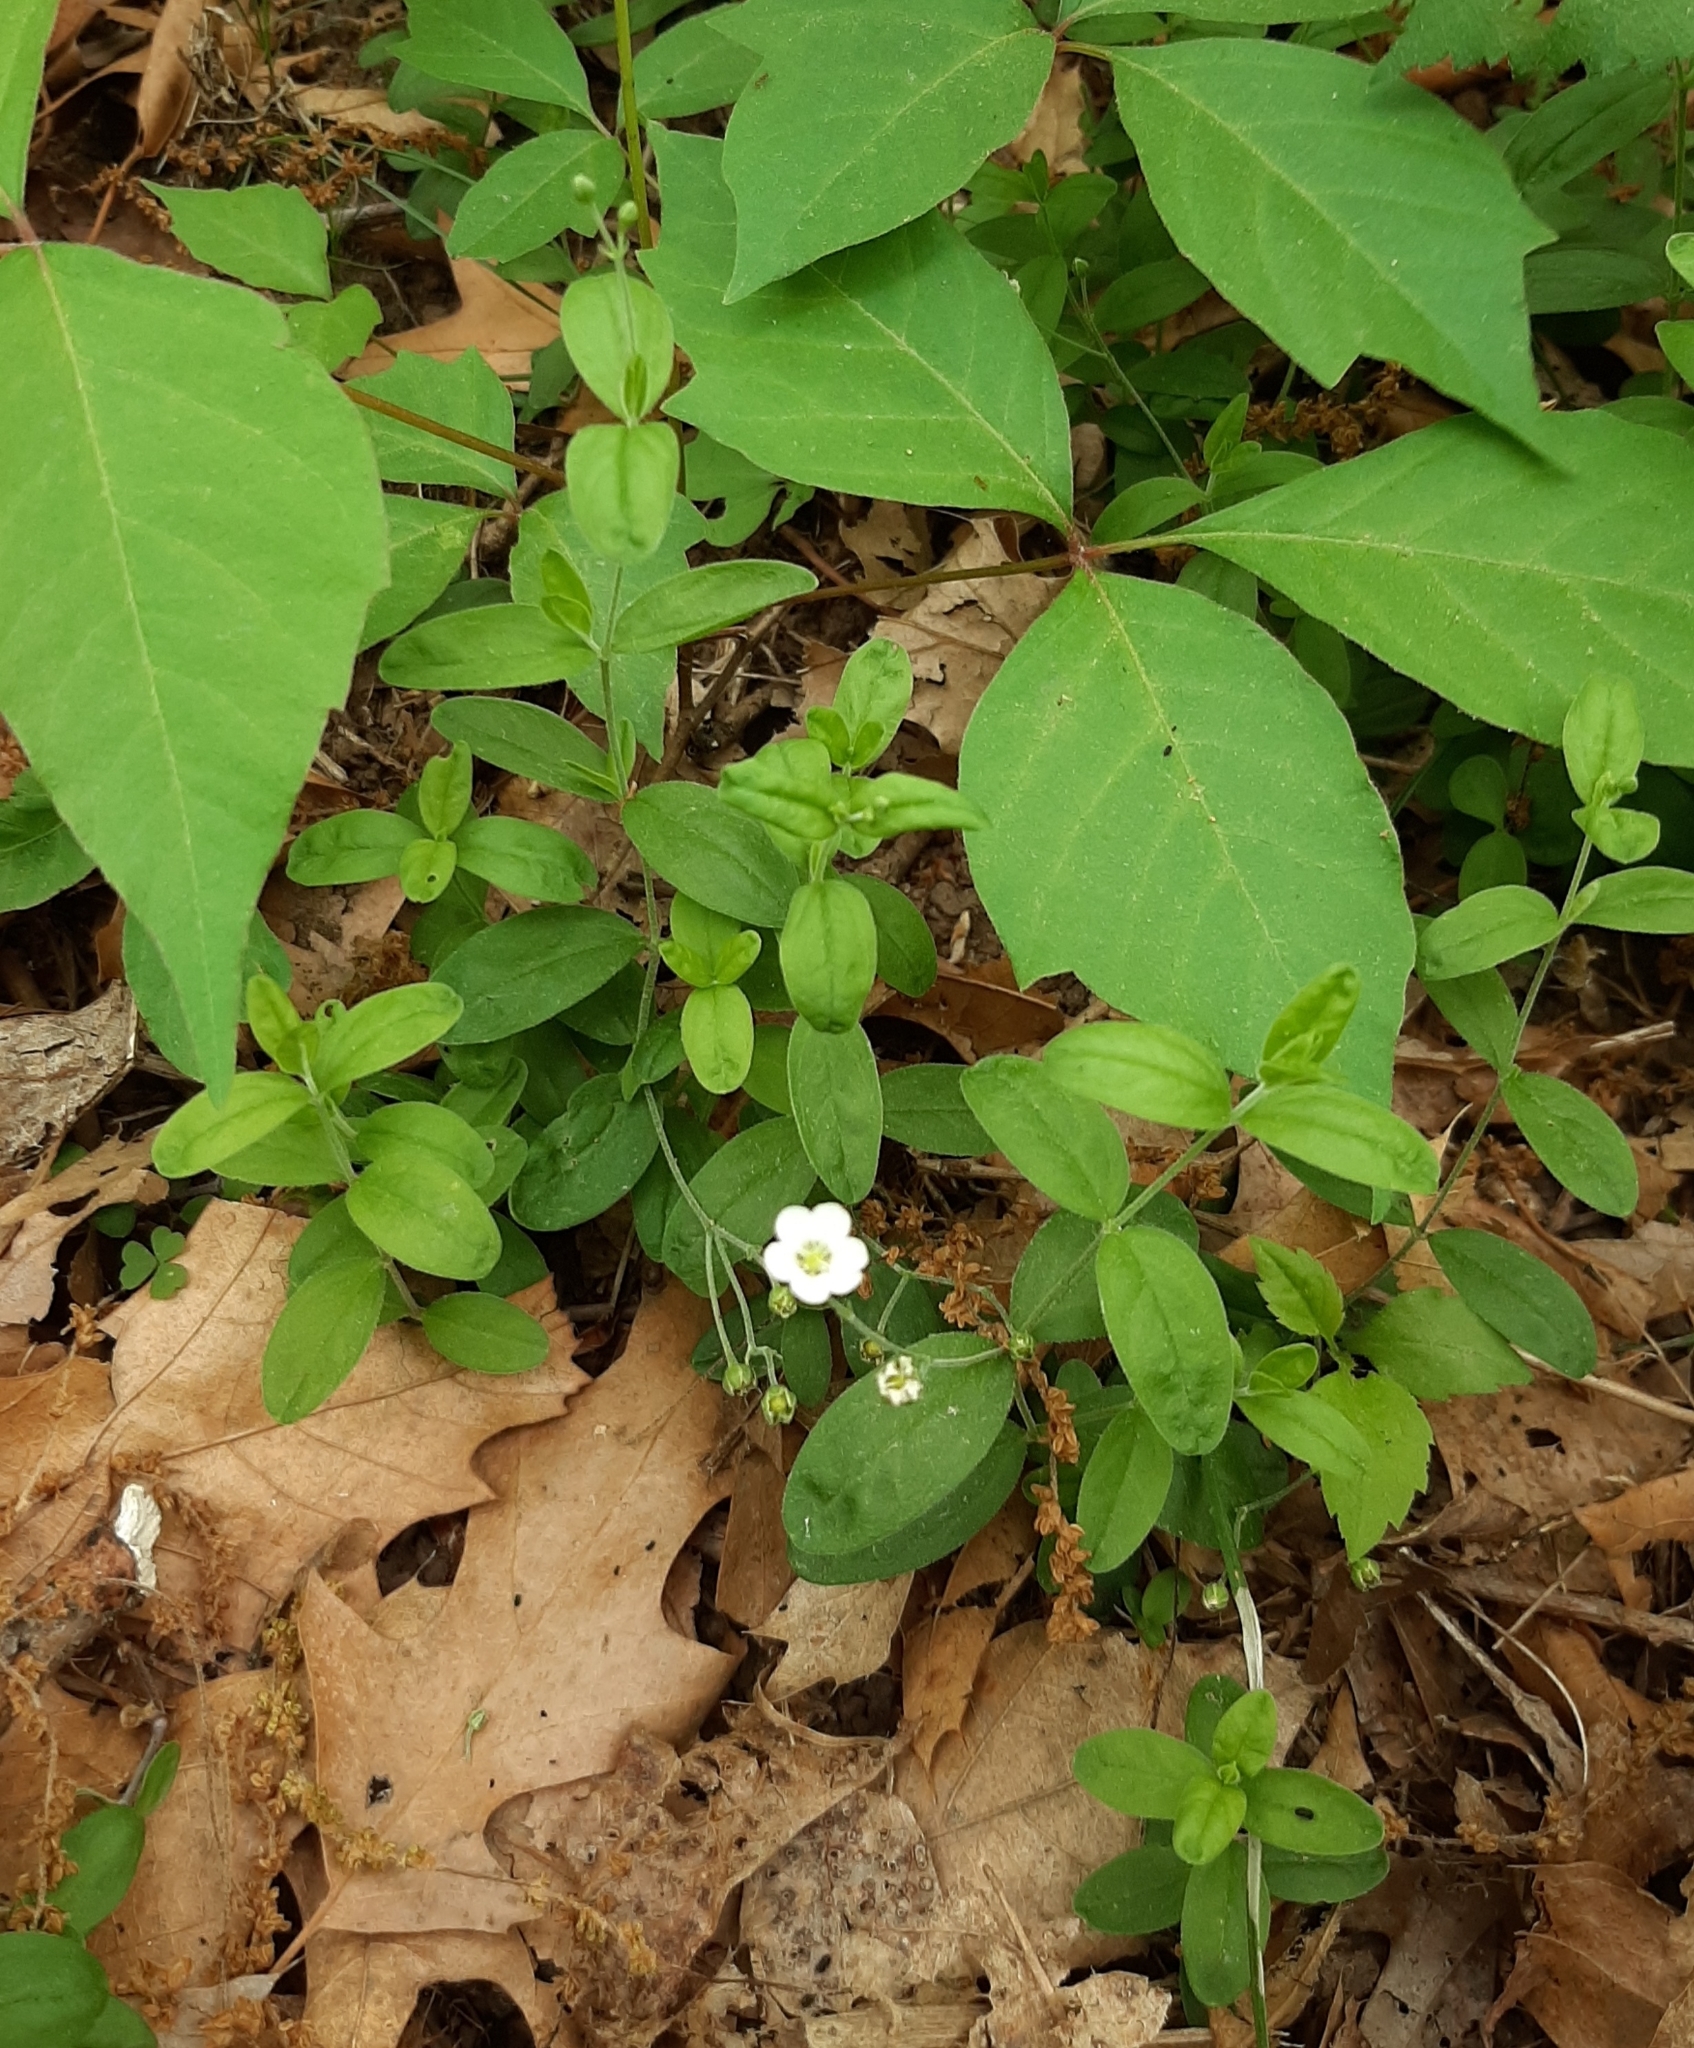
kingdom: Plantae
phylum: Tracheophyta
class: Magnoliopsida
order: Caryophyllales
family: Caryophyllaceae
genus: Moehringia
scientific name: Moehringia lateriflora
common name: Blunt-leaved sandwort
